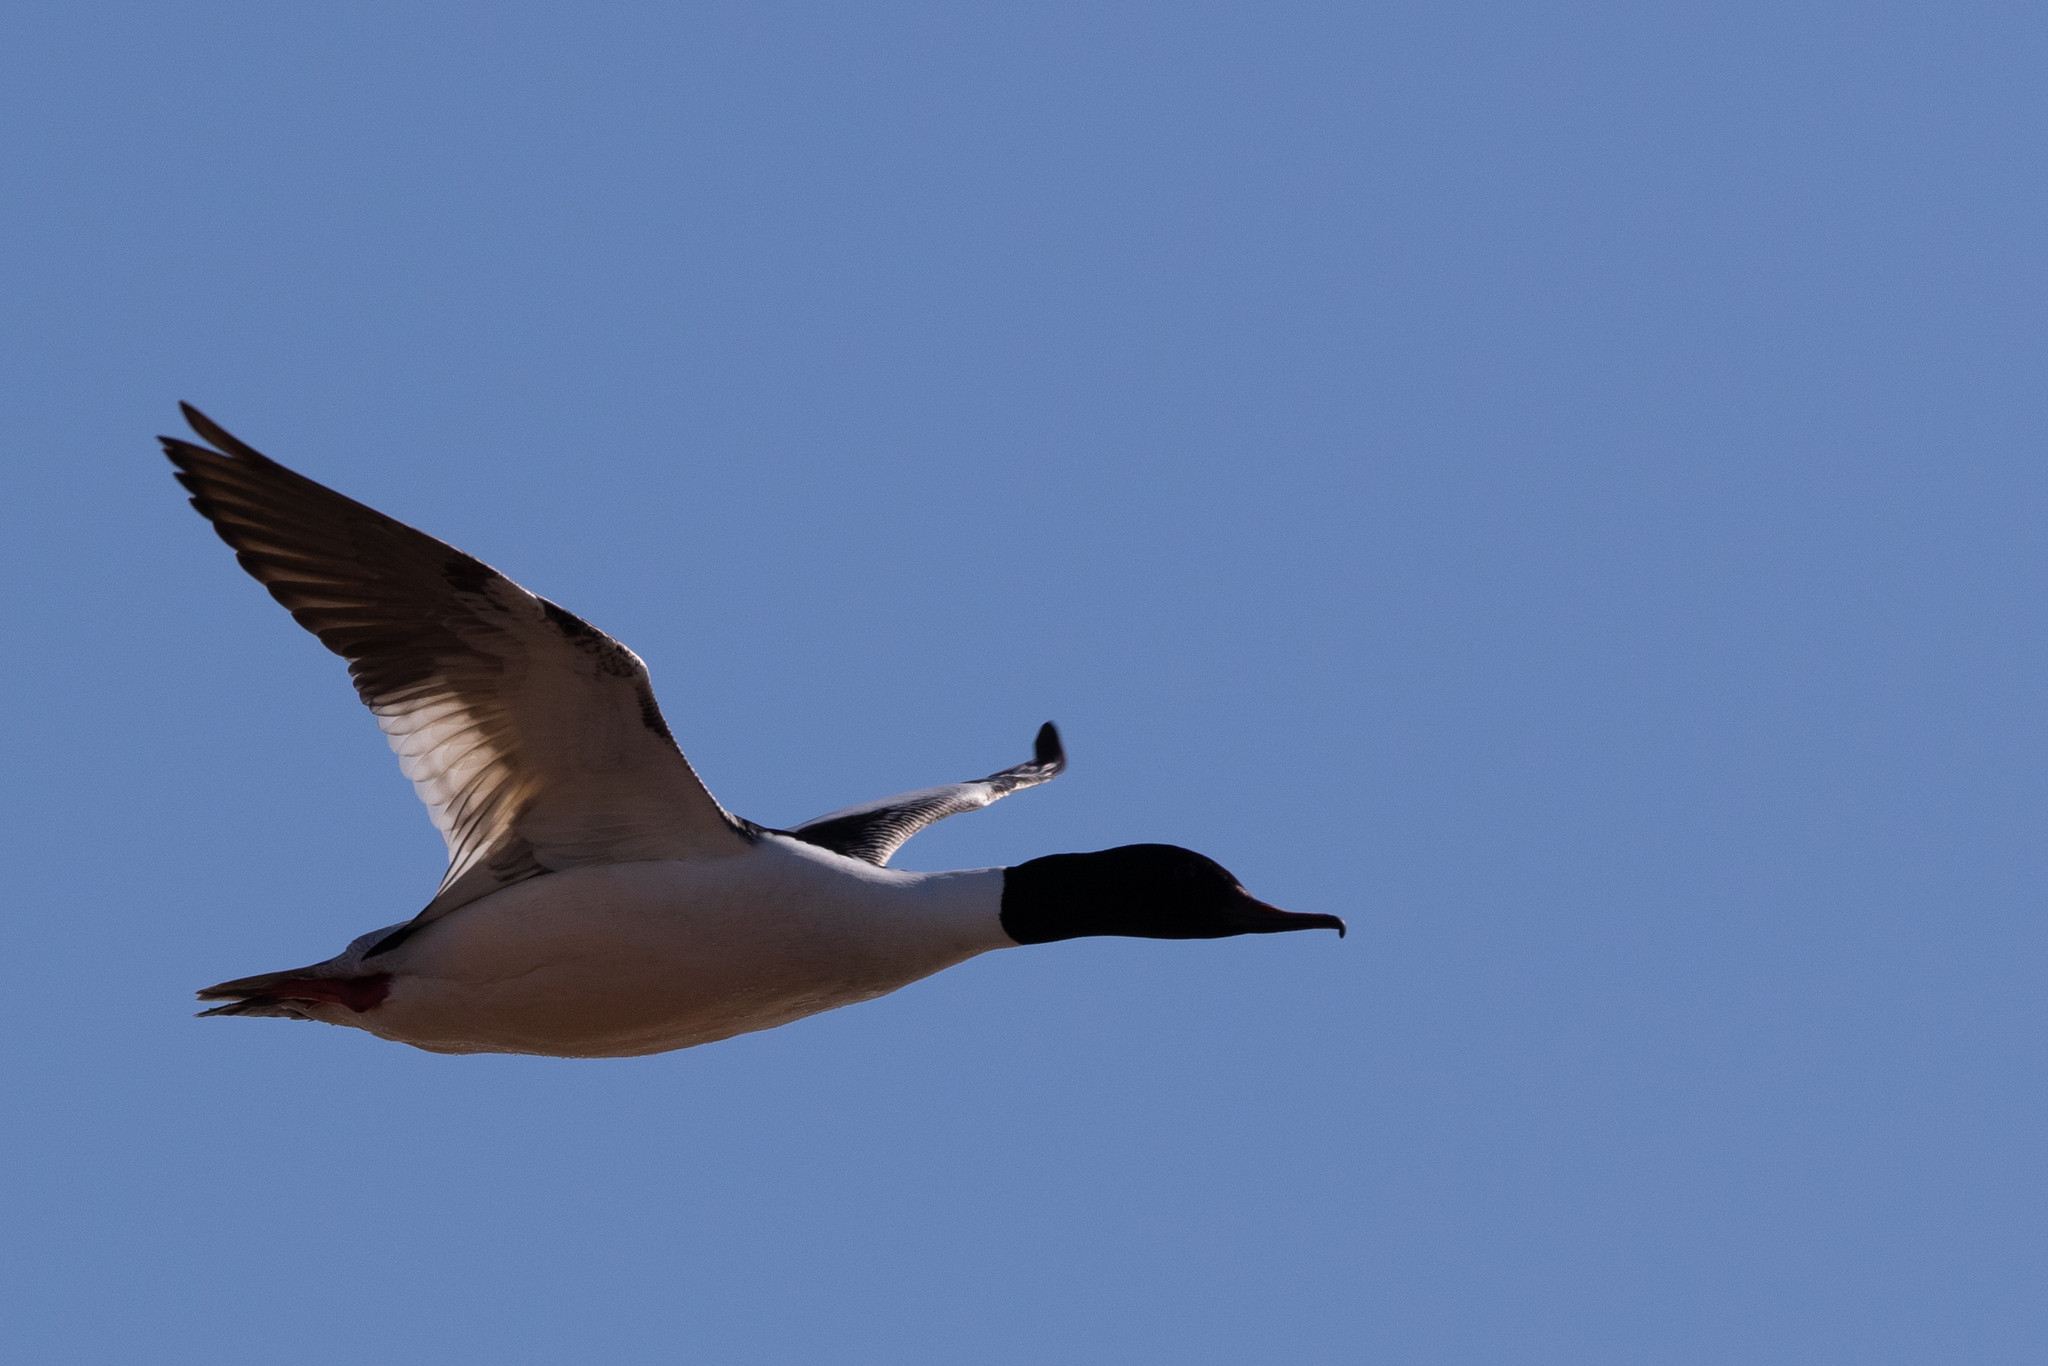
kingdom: Animalia
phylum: Chordata
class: Aves
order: Anseriformes
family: Anatidae
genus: Mergus
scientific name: Mergus merganser
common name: Common merganser
